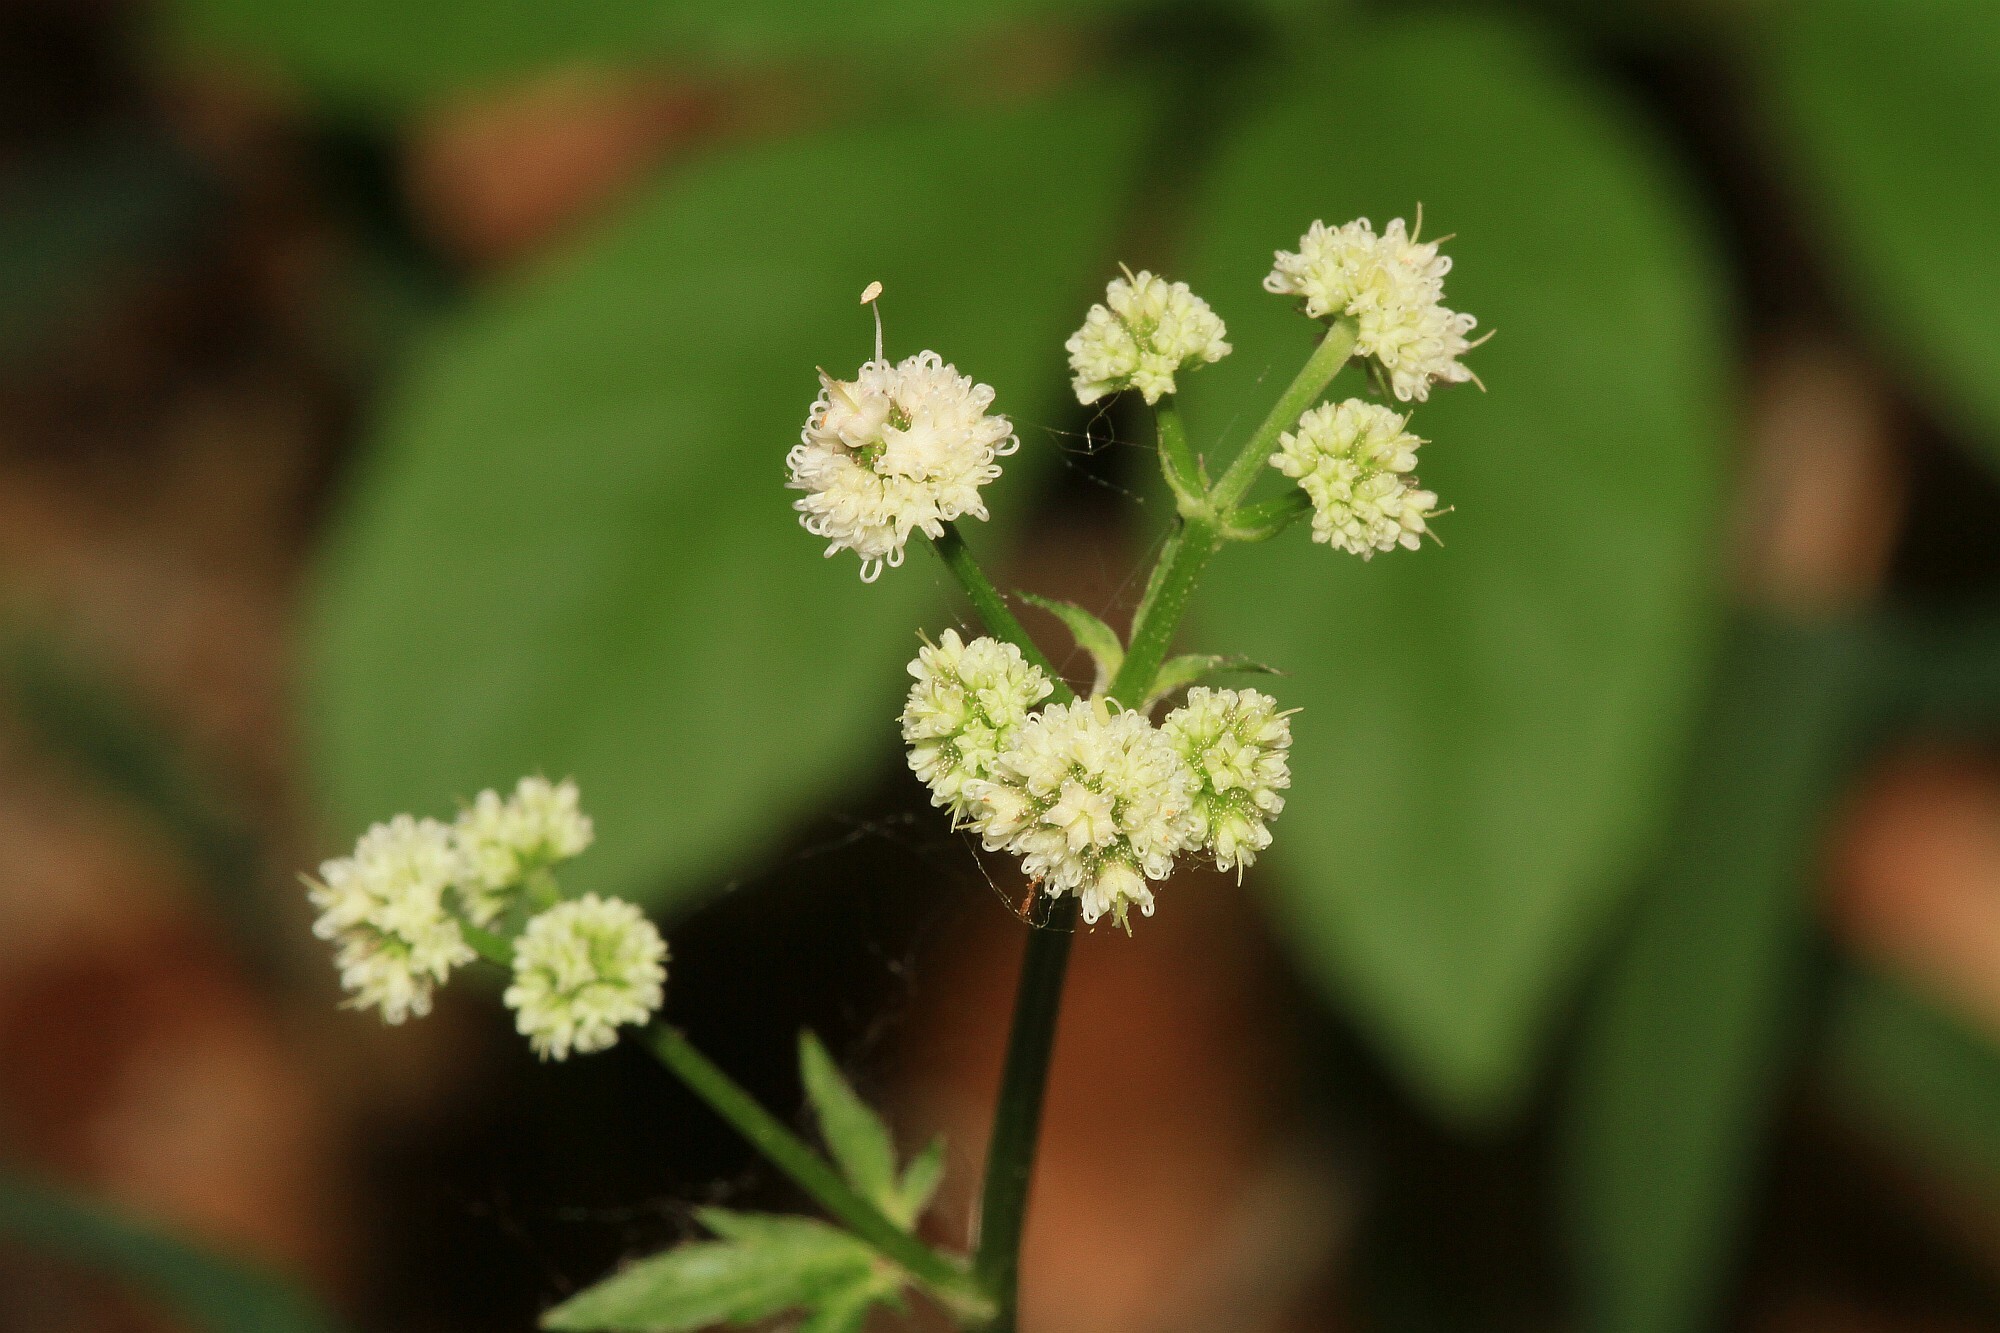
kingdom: Plantae
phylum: Tracheophyta
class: Magnoliopsida
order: Apiales
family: Apiaceae
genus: Sanicula
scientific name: Sanicula europaea
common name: Sanicle
